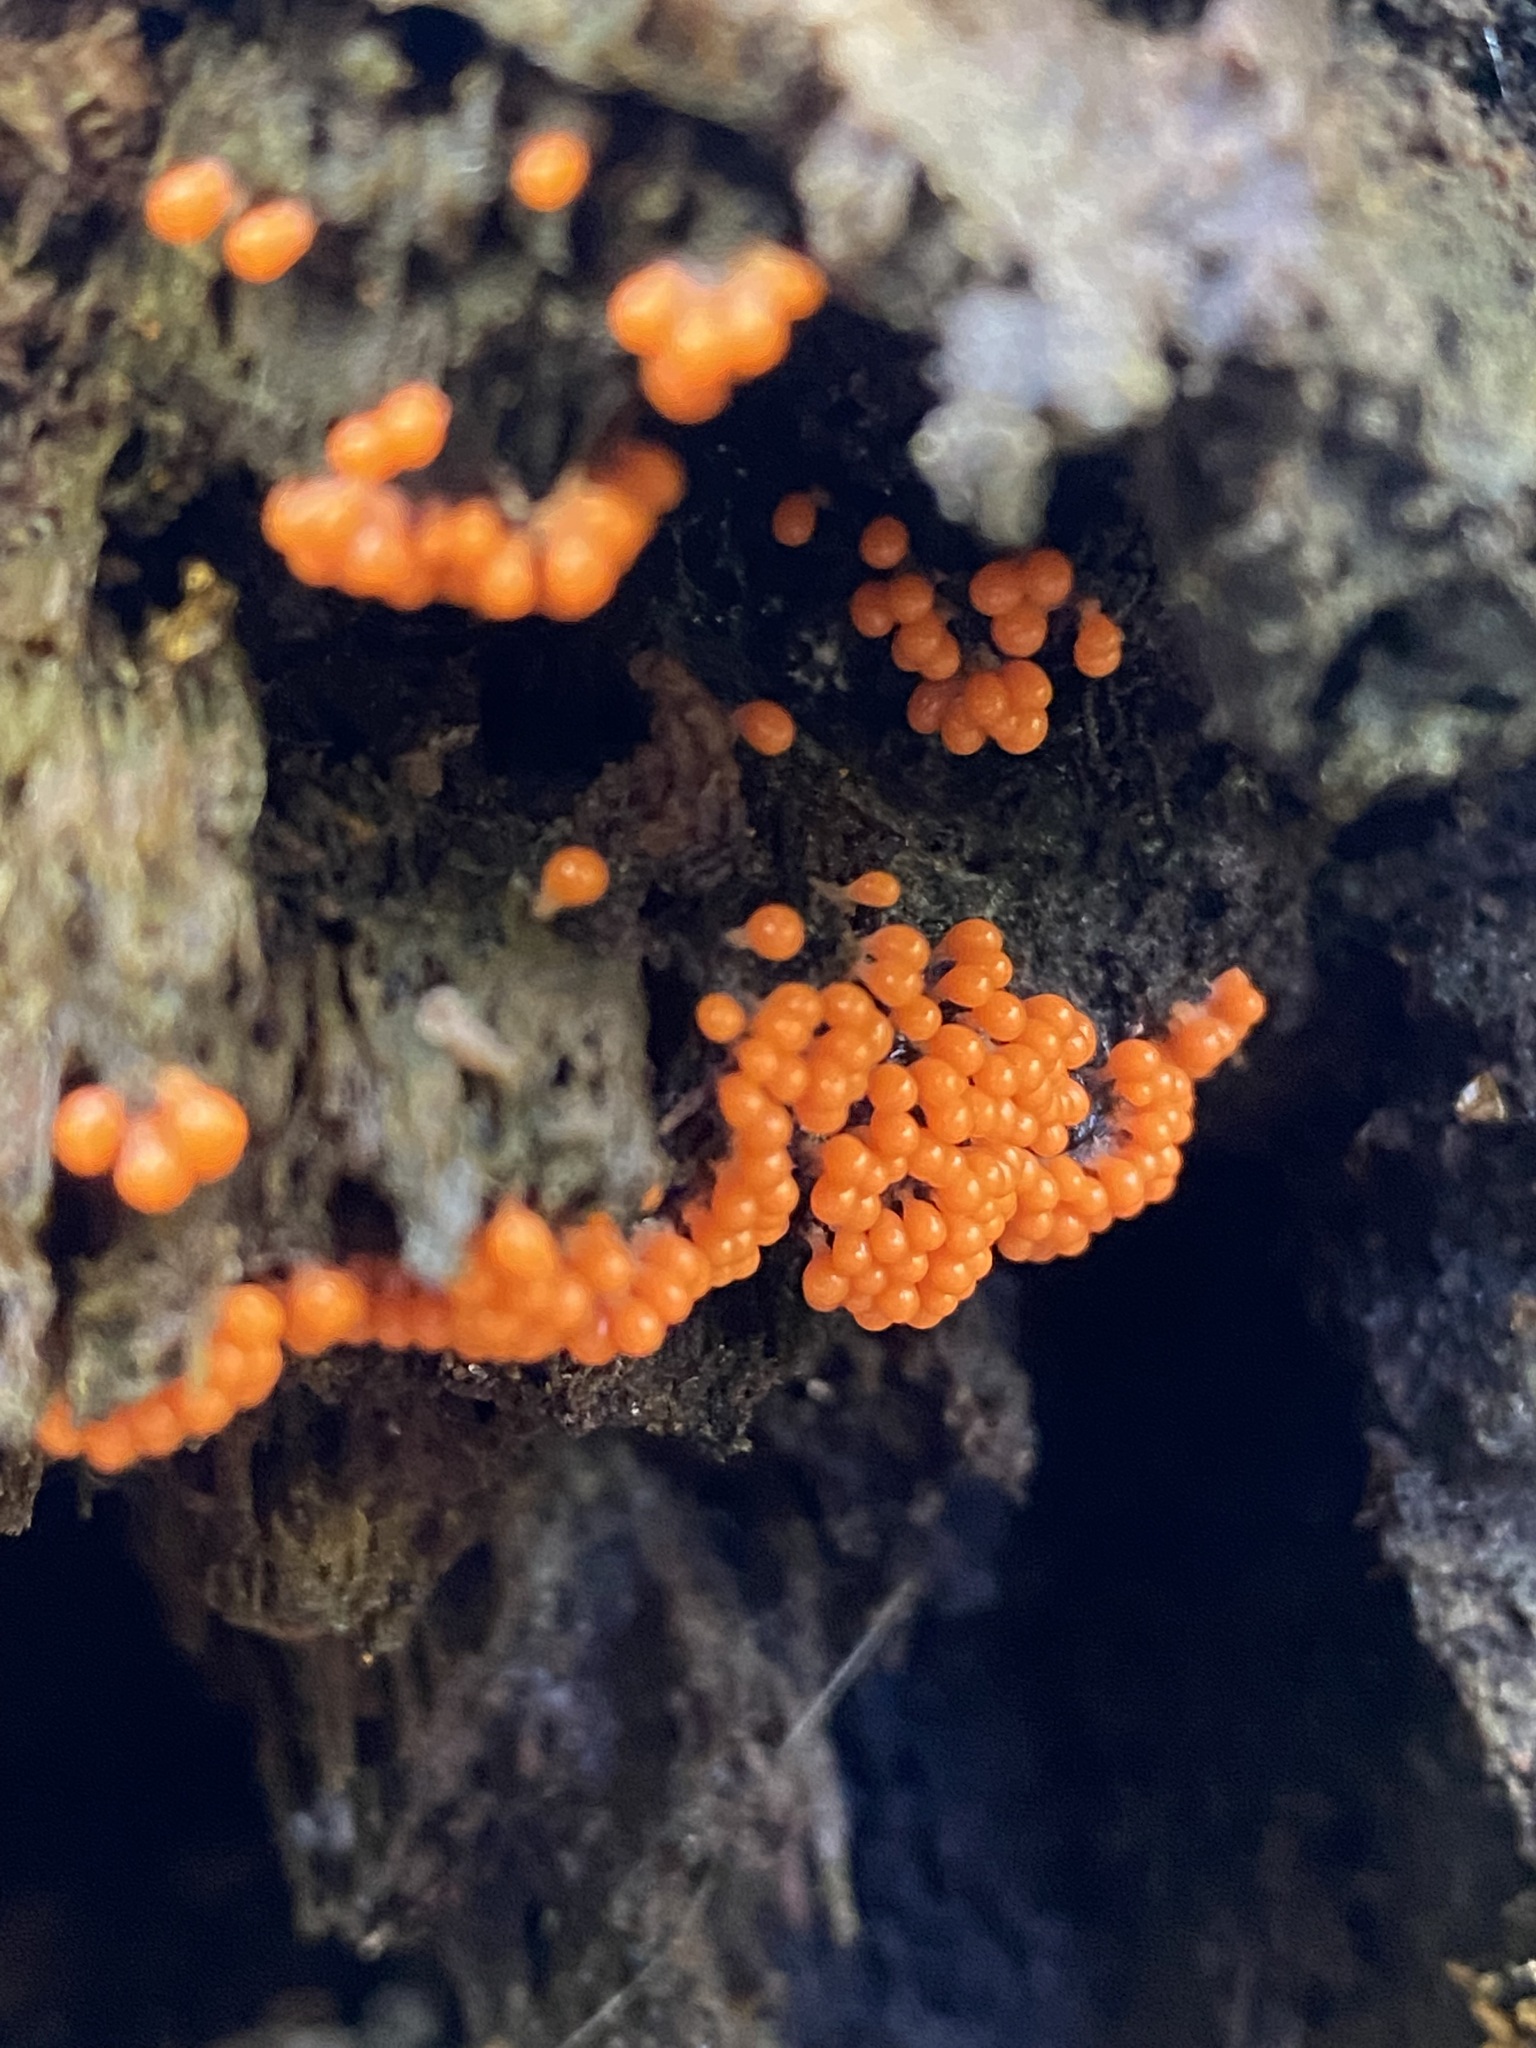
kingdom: Protozoa
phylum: Mycetozoa
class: Myxomycetes
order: Trichiales
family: Arcyriaceae
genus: Hemitrichia
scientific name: Hemitrichia decipiens
